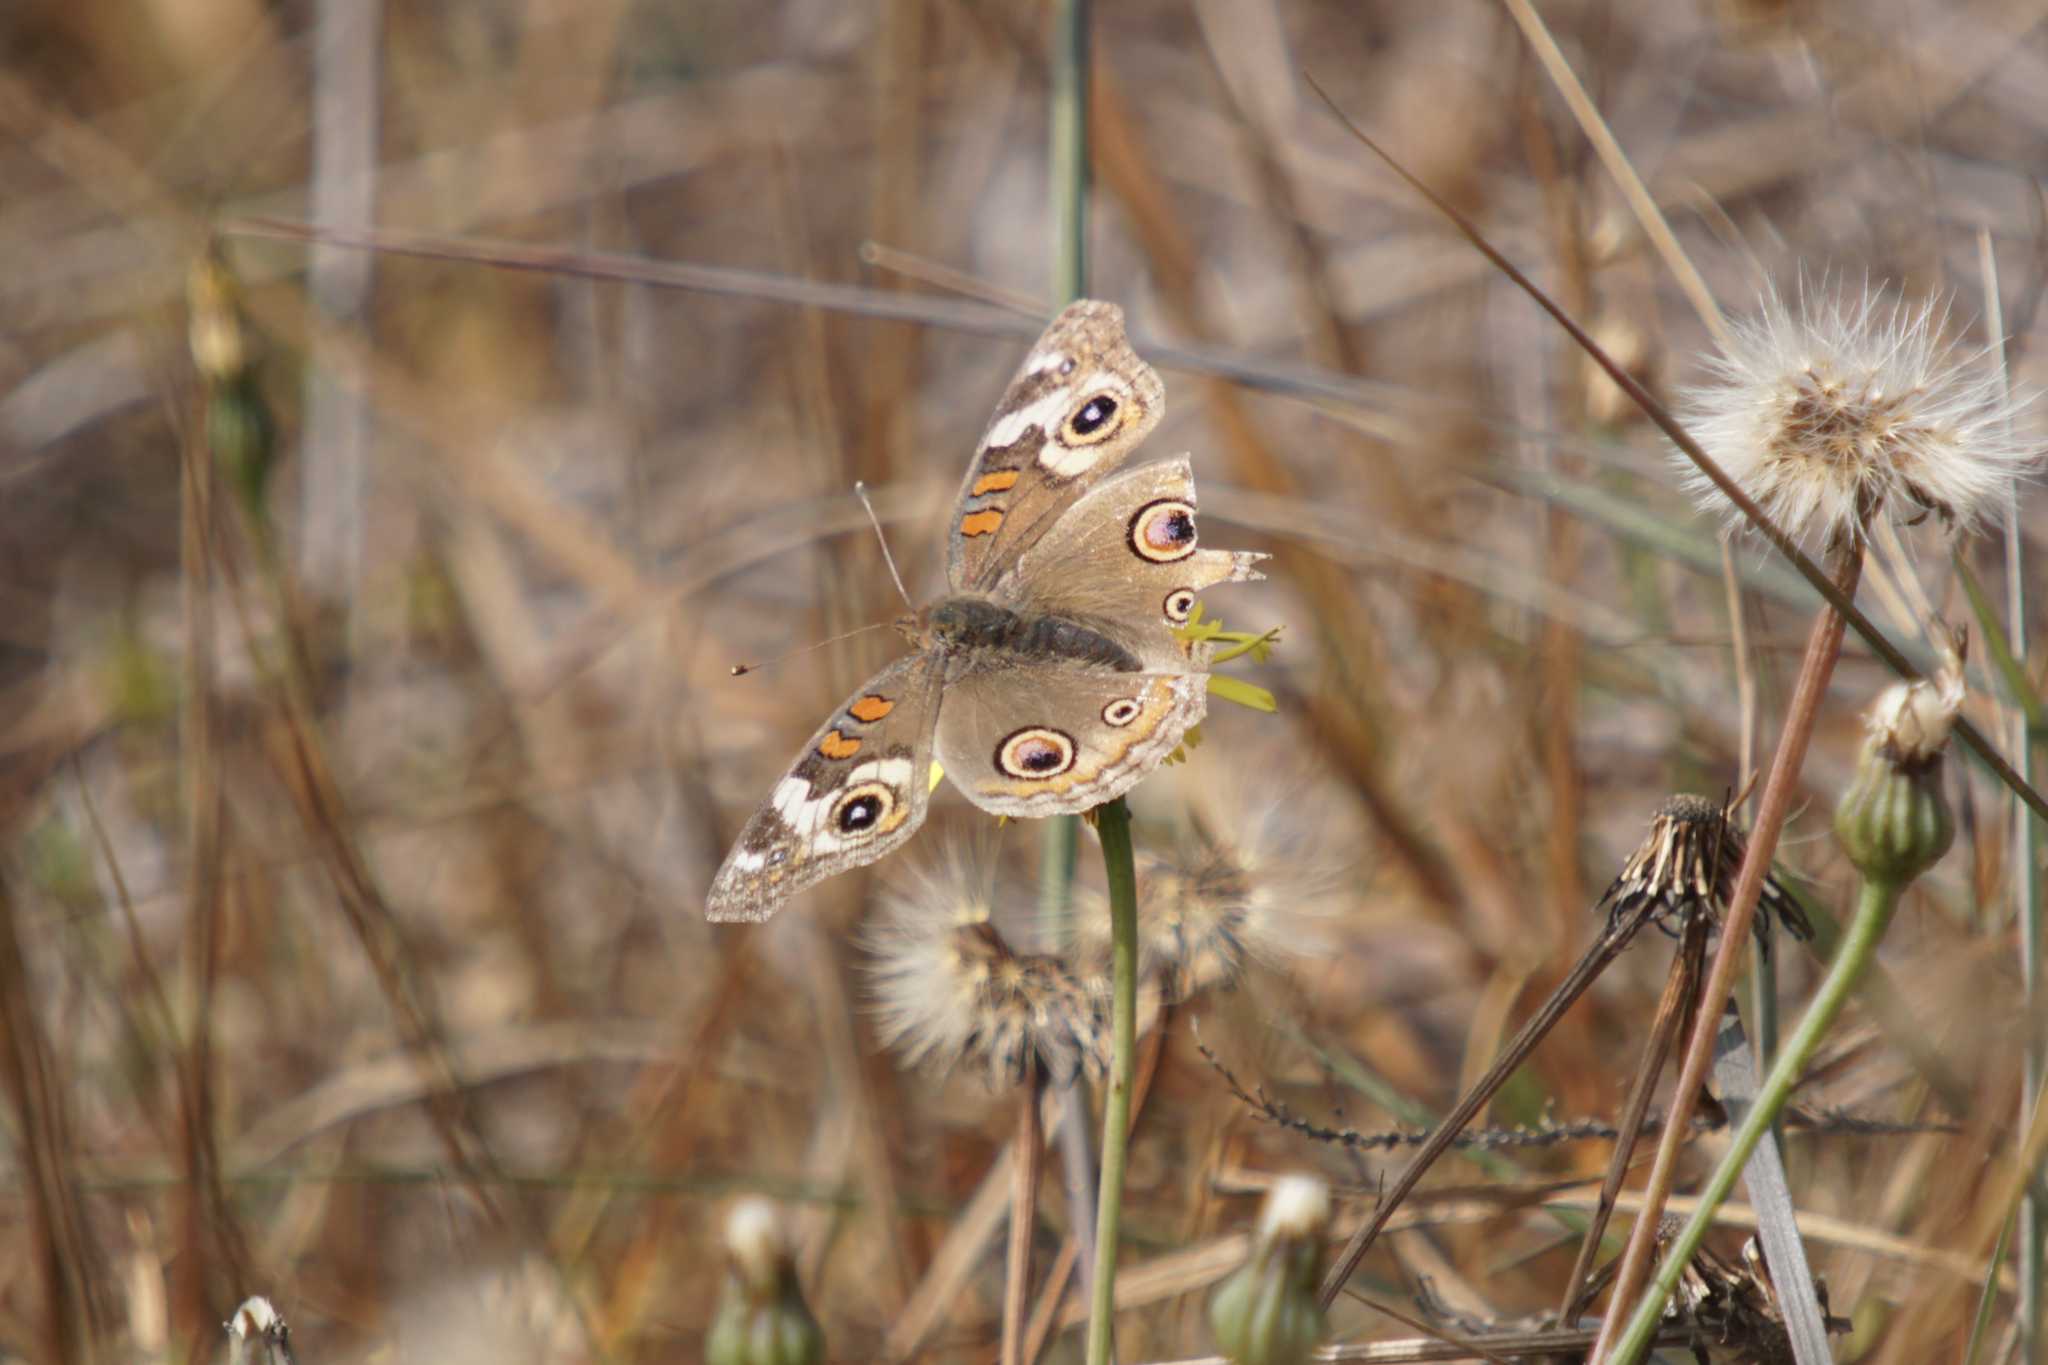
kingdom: Animalia
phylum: Arthropoda
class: Insecta
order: Lepidoptera
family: Nymphalidae
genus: Junonia
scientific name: Junonia grisea
